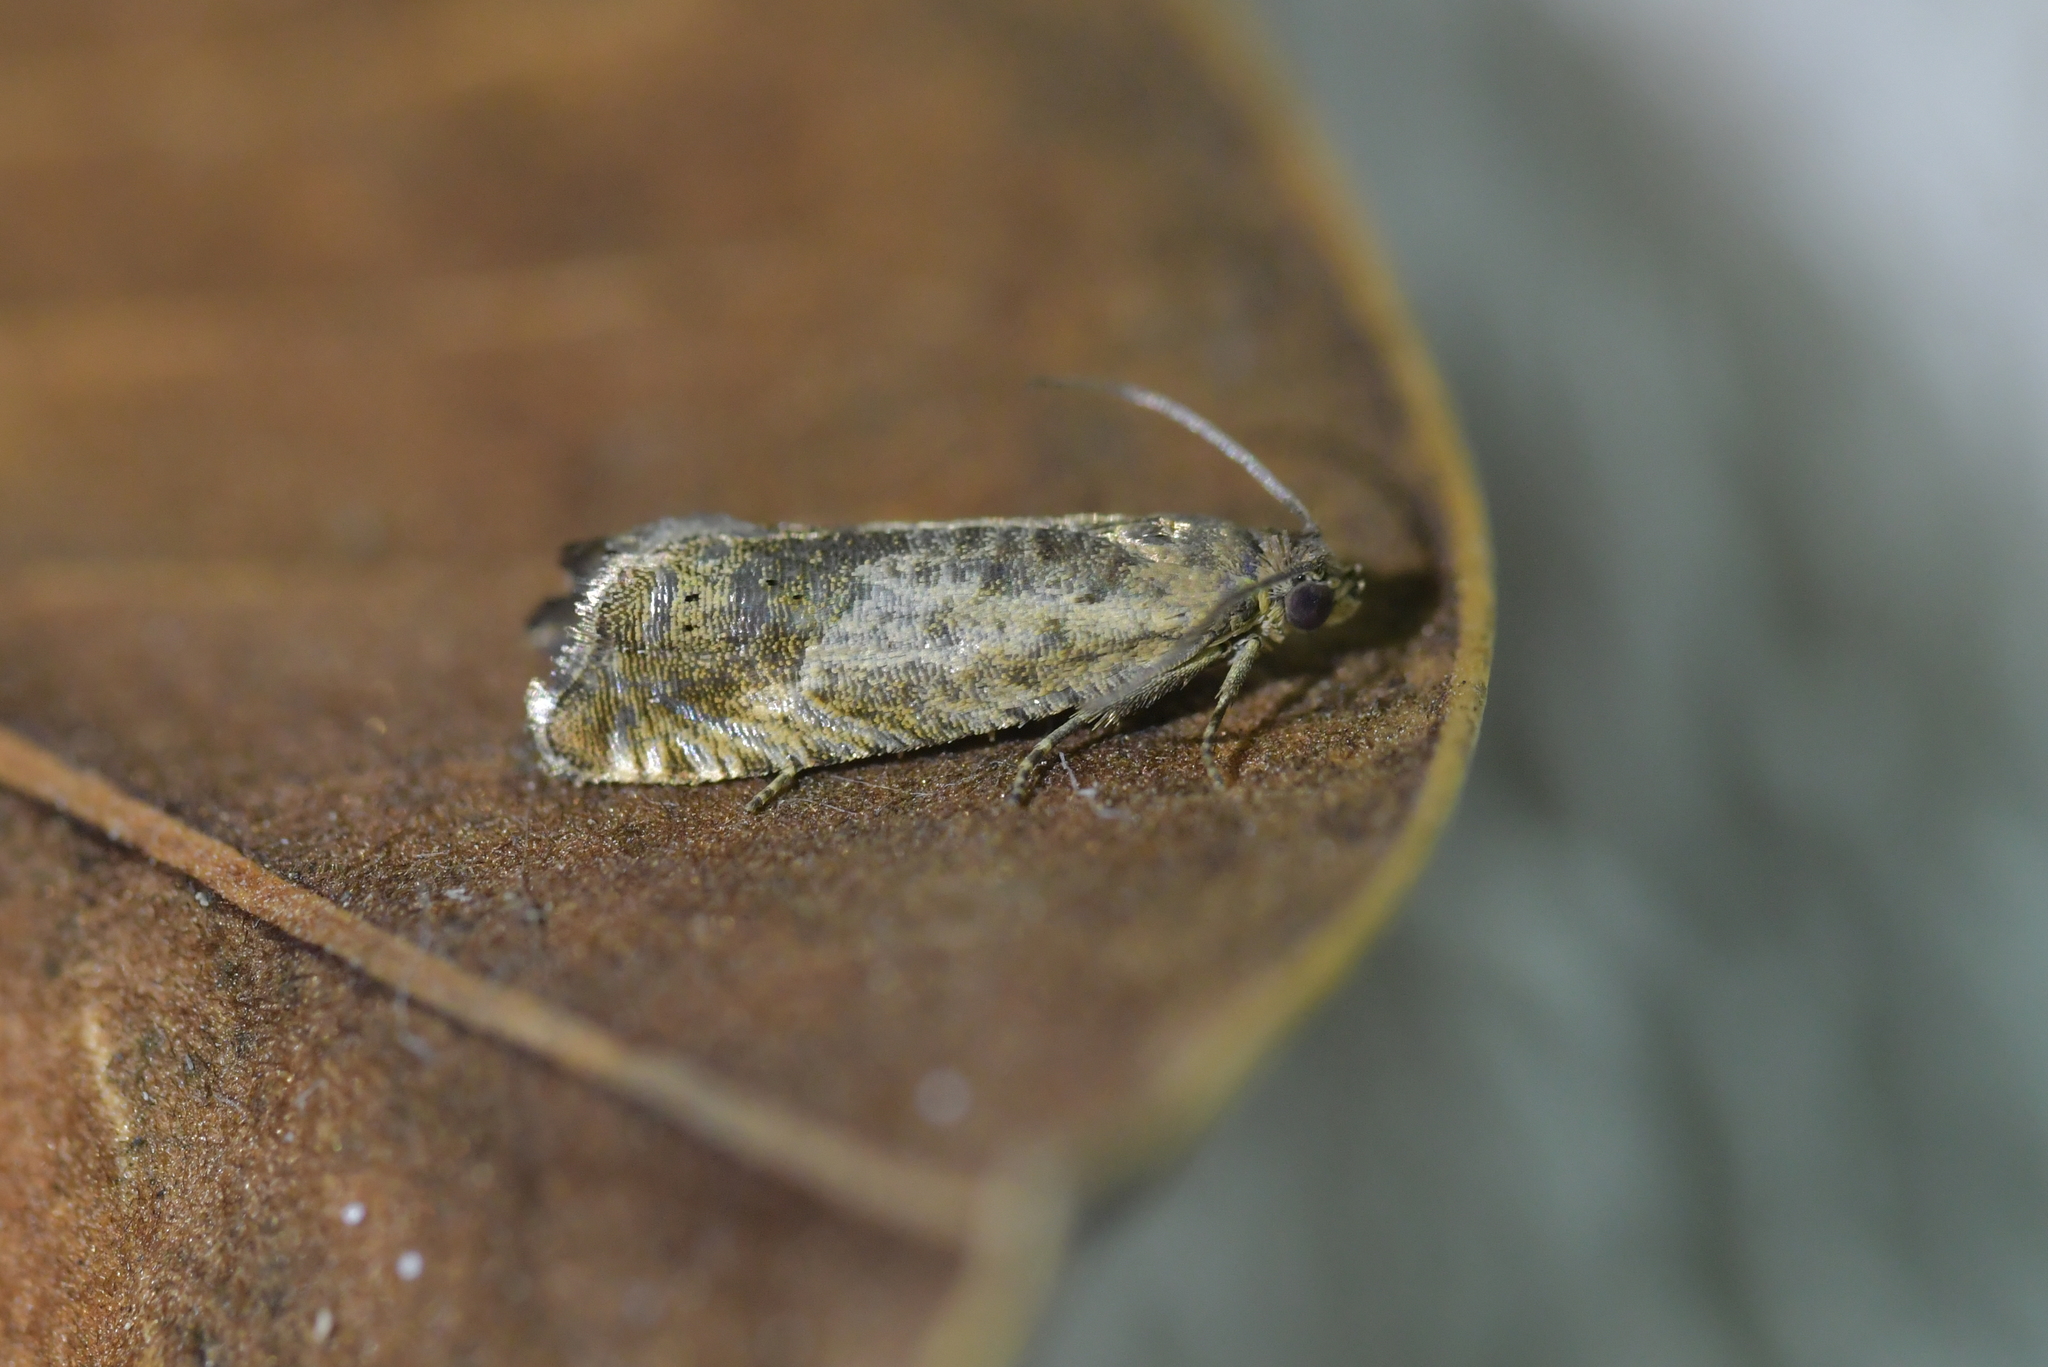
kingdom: Animalia
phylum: Arthropoda
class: Insecta
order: Lepidoptera
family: Tortricidae
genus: Cydia
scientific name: Cydia succedana
